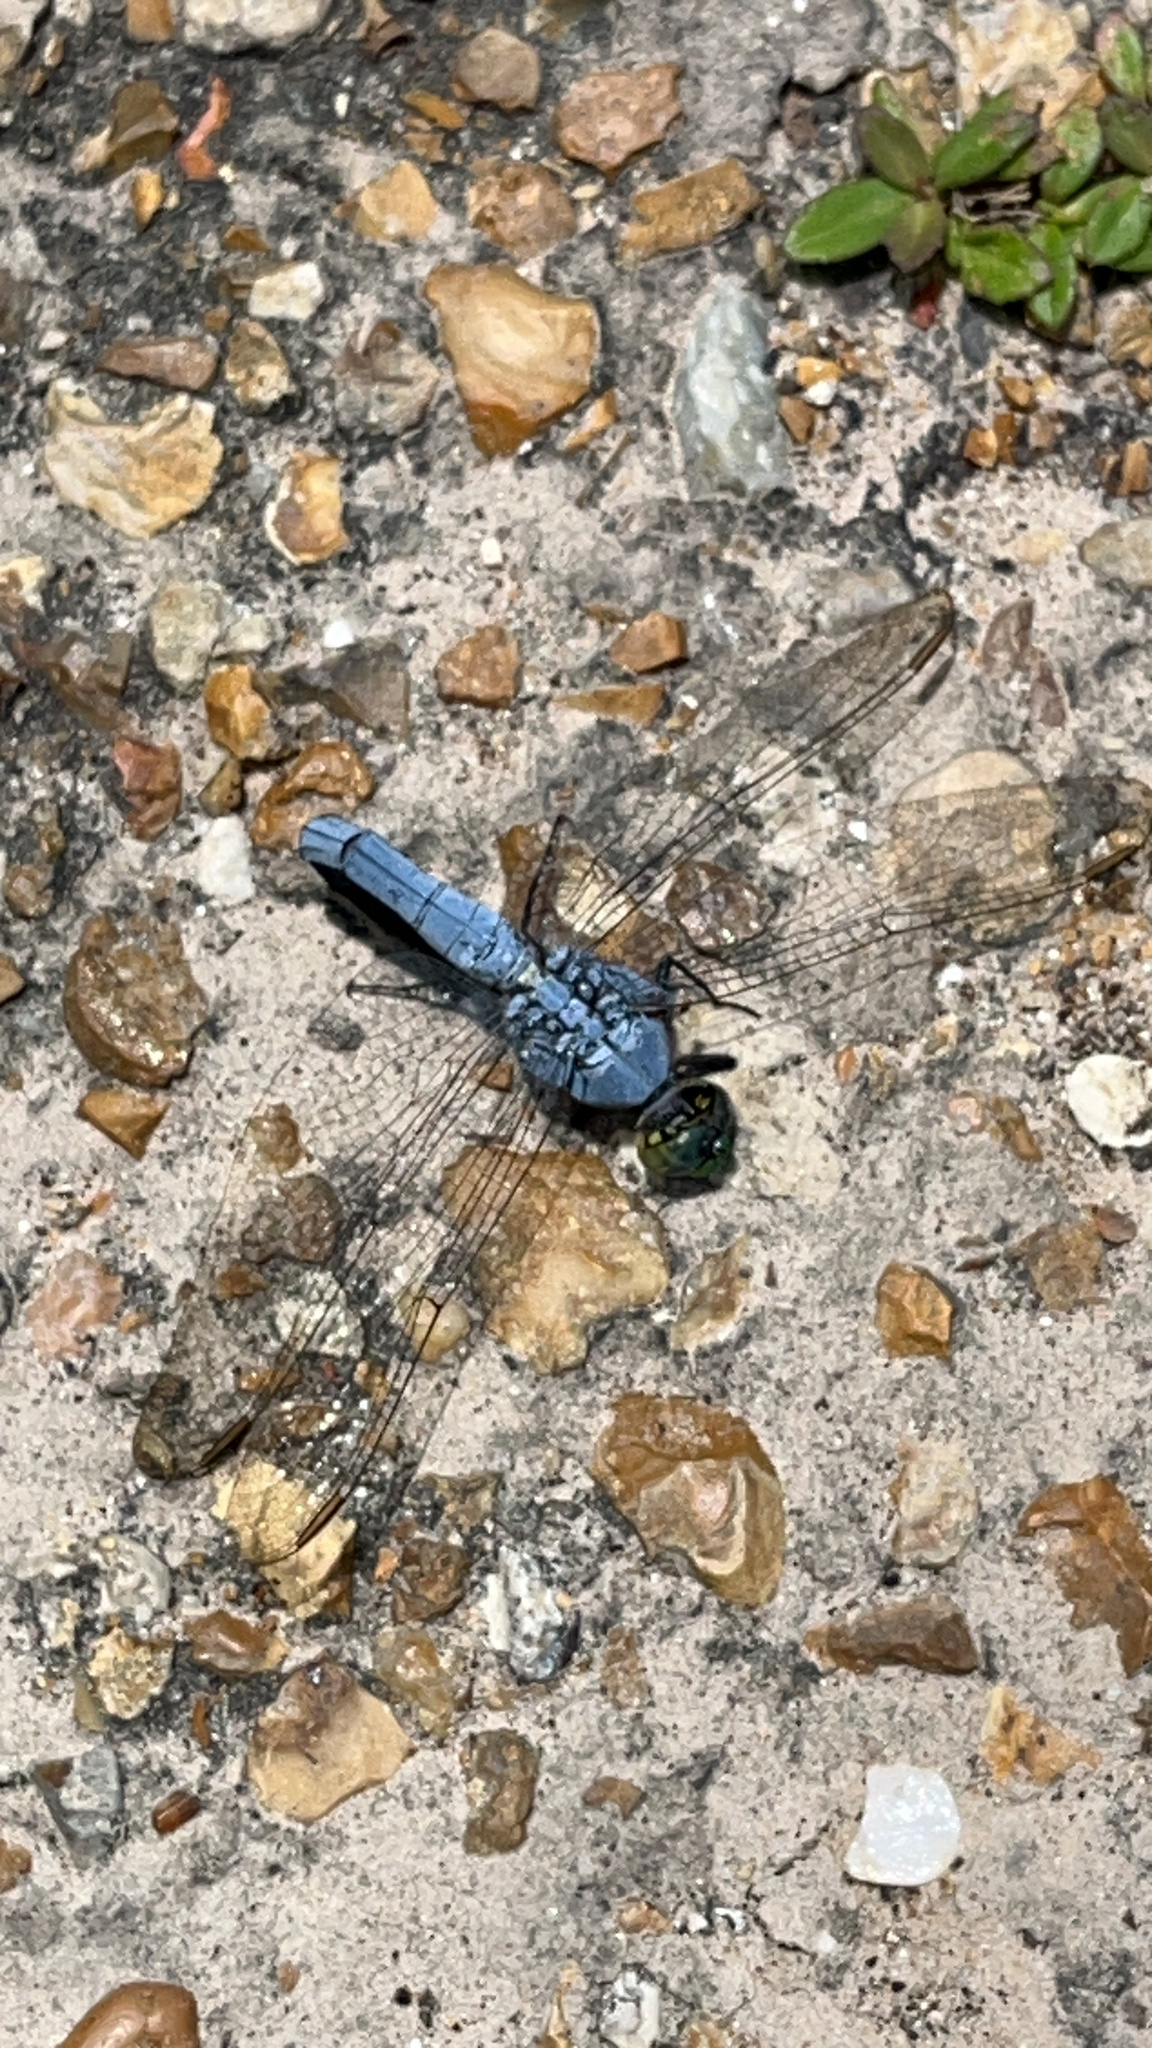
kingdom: Animalia
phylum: Arthropoda
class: Insecta
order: Odonata
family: Libellulidae
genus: Erythemis
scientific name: Erythemis simplicicollis
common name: Eastern pondhawk
